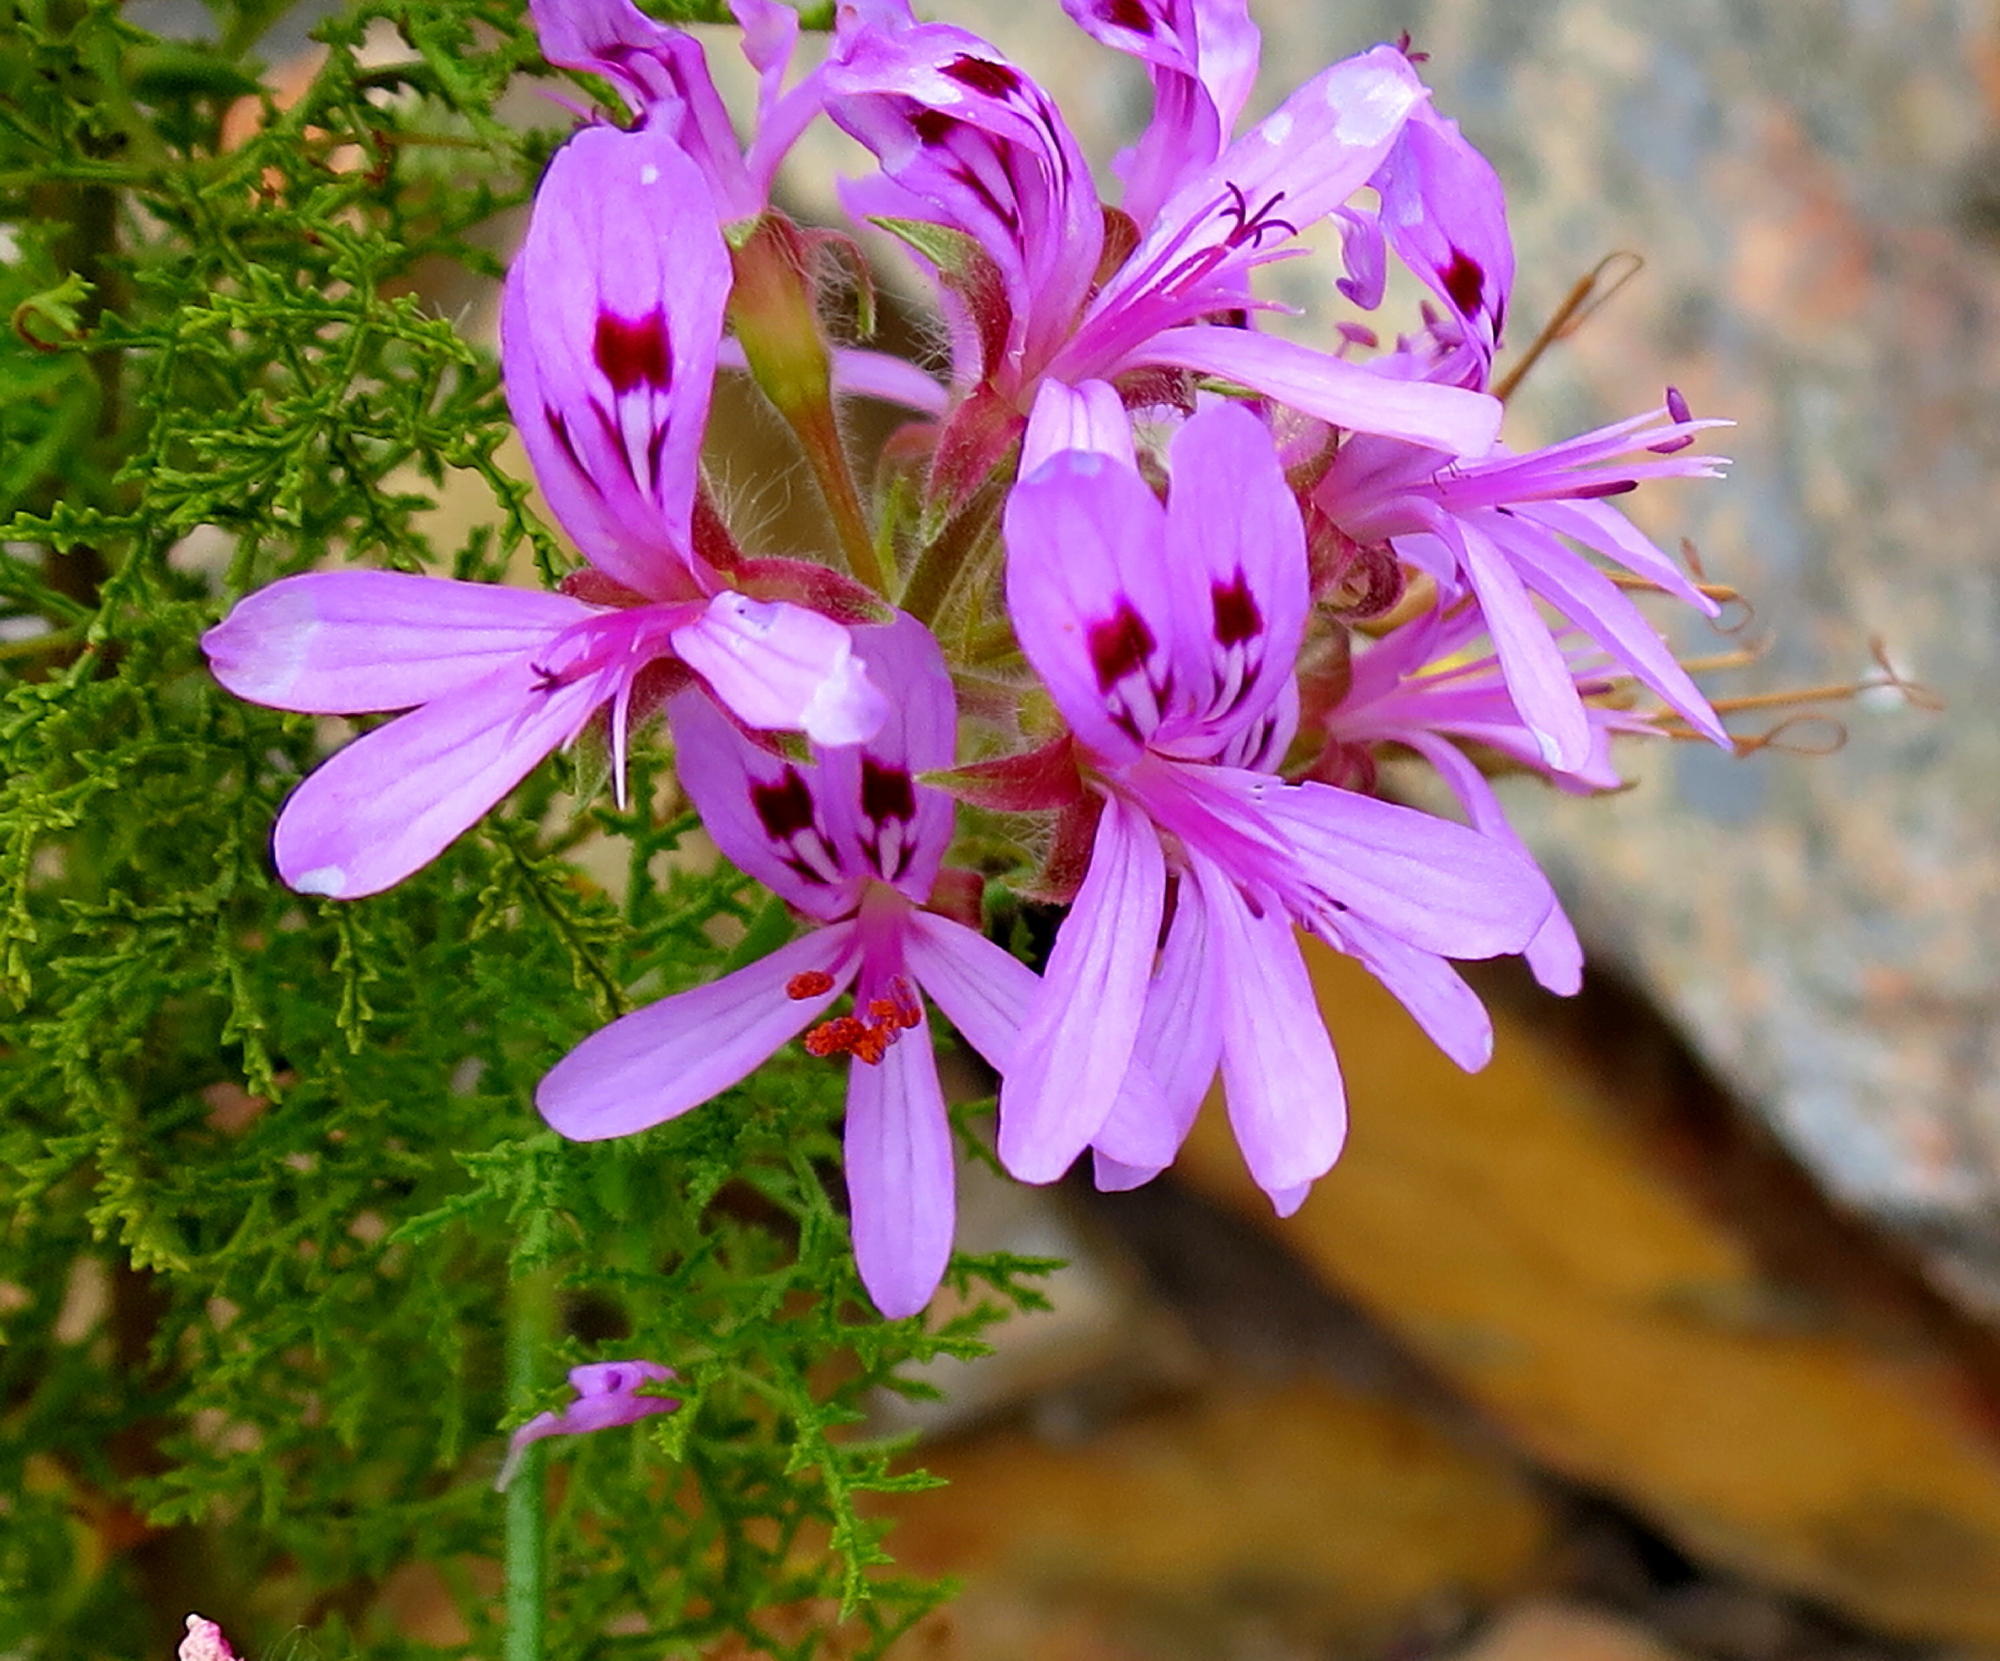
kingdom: Plantae
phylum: Tracheophyta
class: Magnoliopsida
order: Geraniales
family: Geraniaceae
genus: Pelargonium
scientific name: Pelargonium denticulatum
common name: Pine geranium
